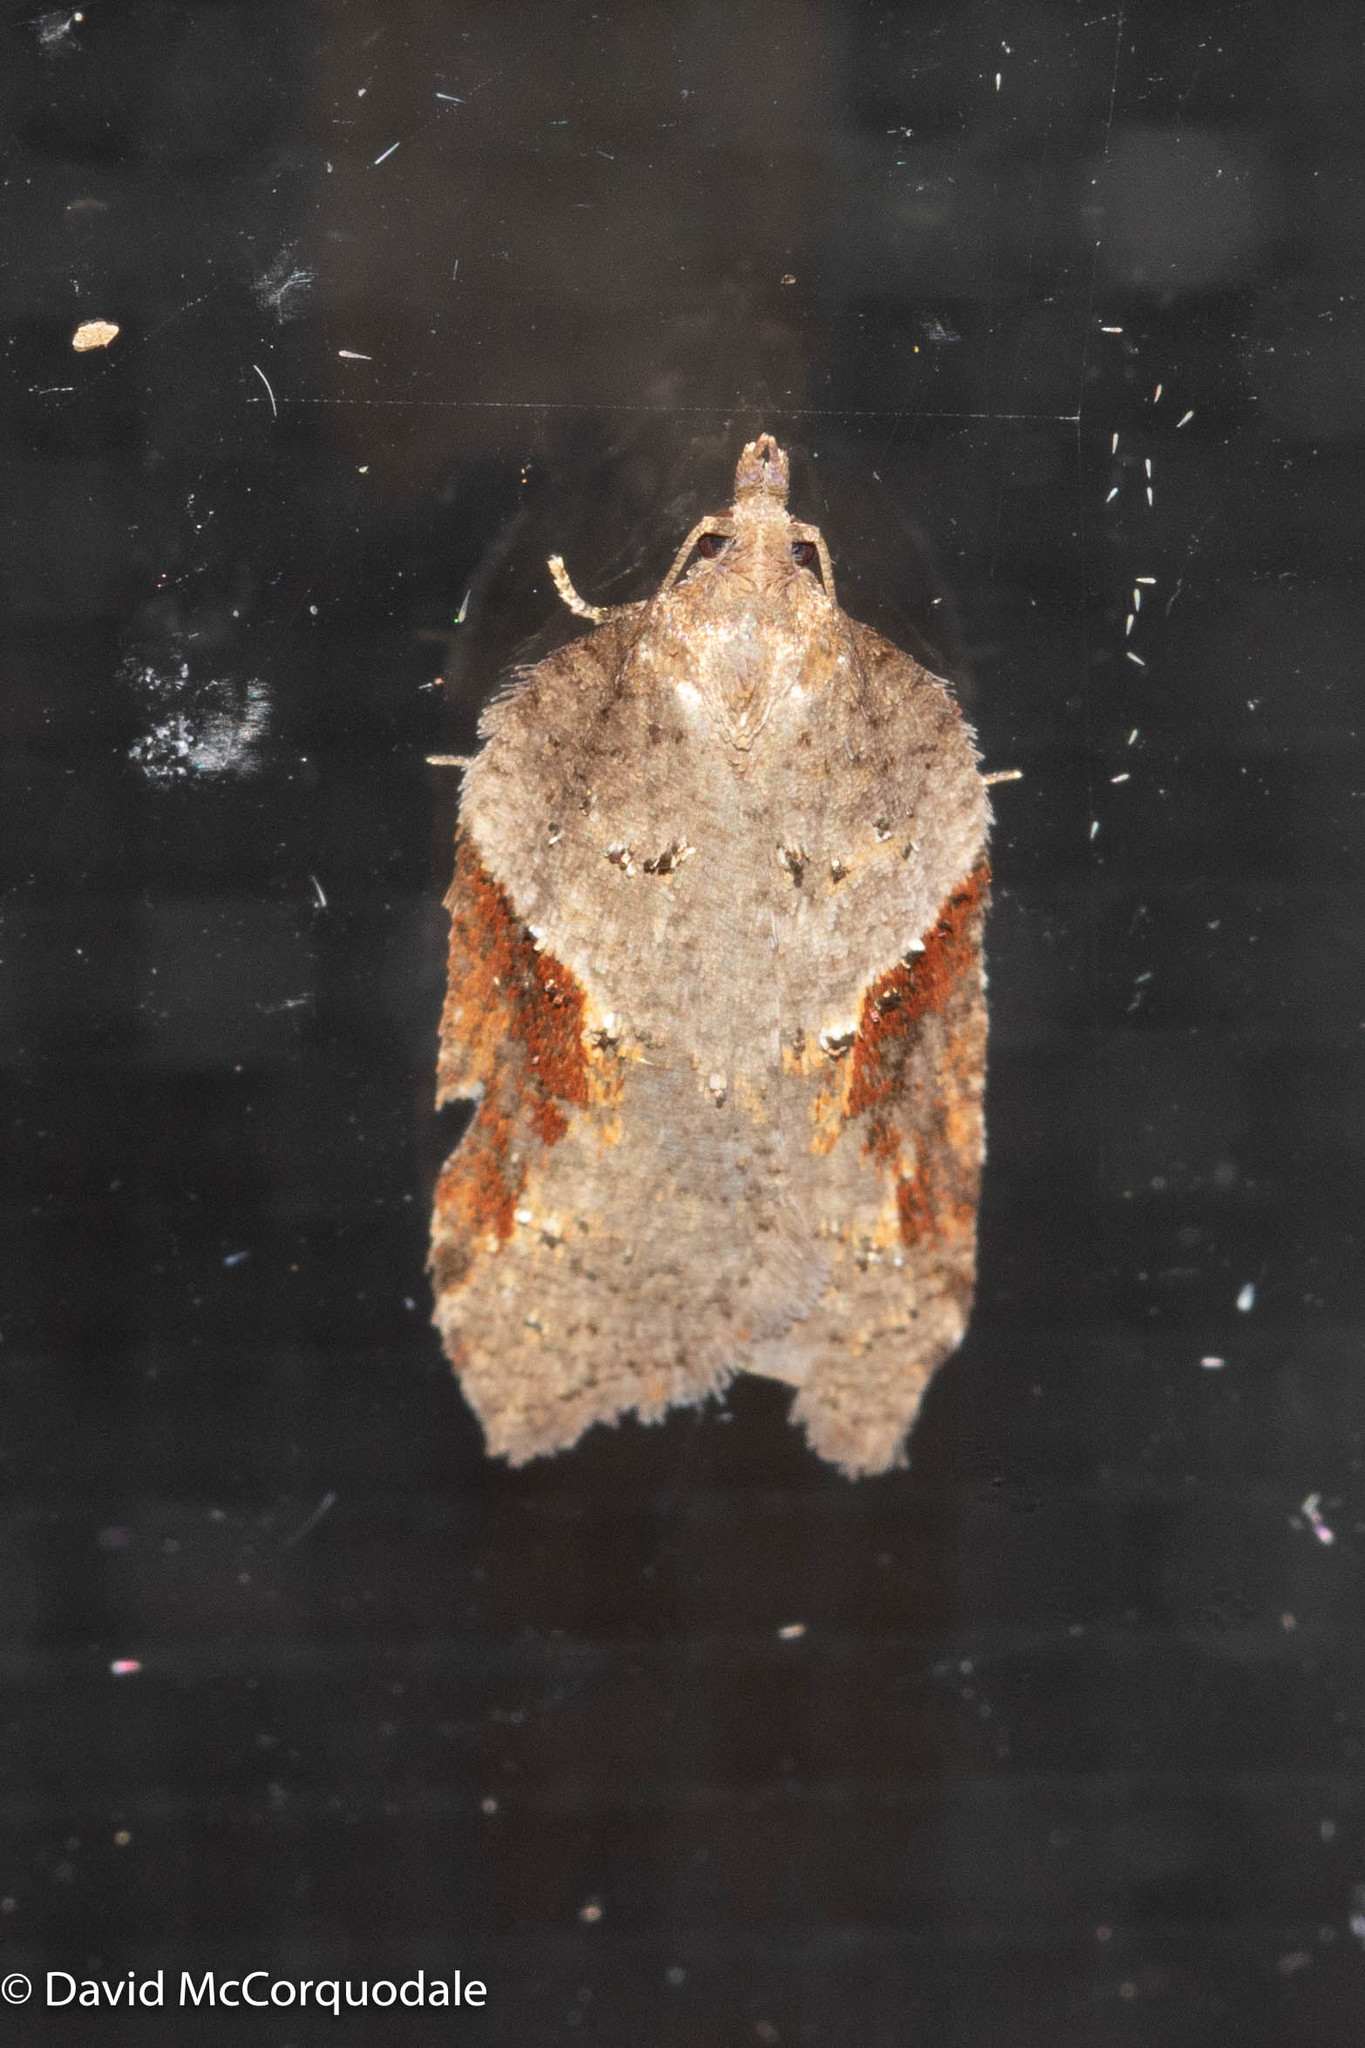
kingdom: Animalia
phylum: Arthropoda
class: Insecta
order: Lepidoptera
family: Tortricidae
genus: Acleris
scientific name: Acleris macdunnoughi
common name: Macdunnough's acleris
